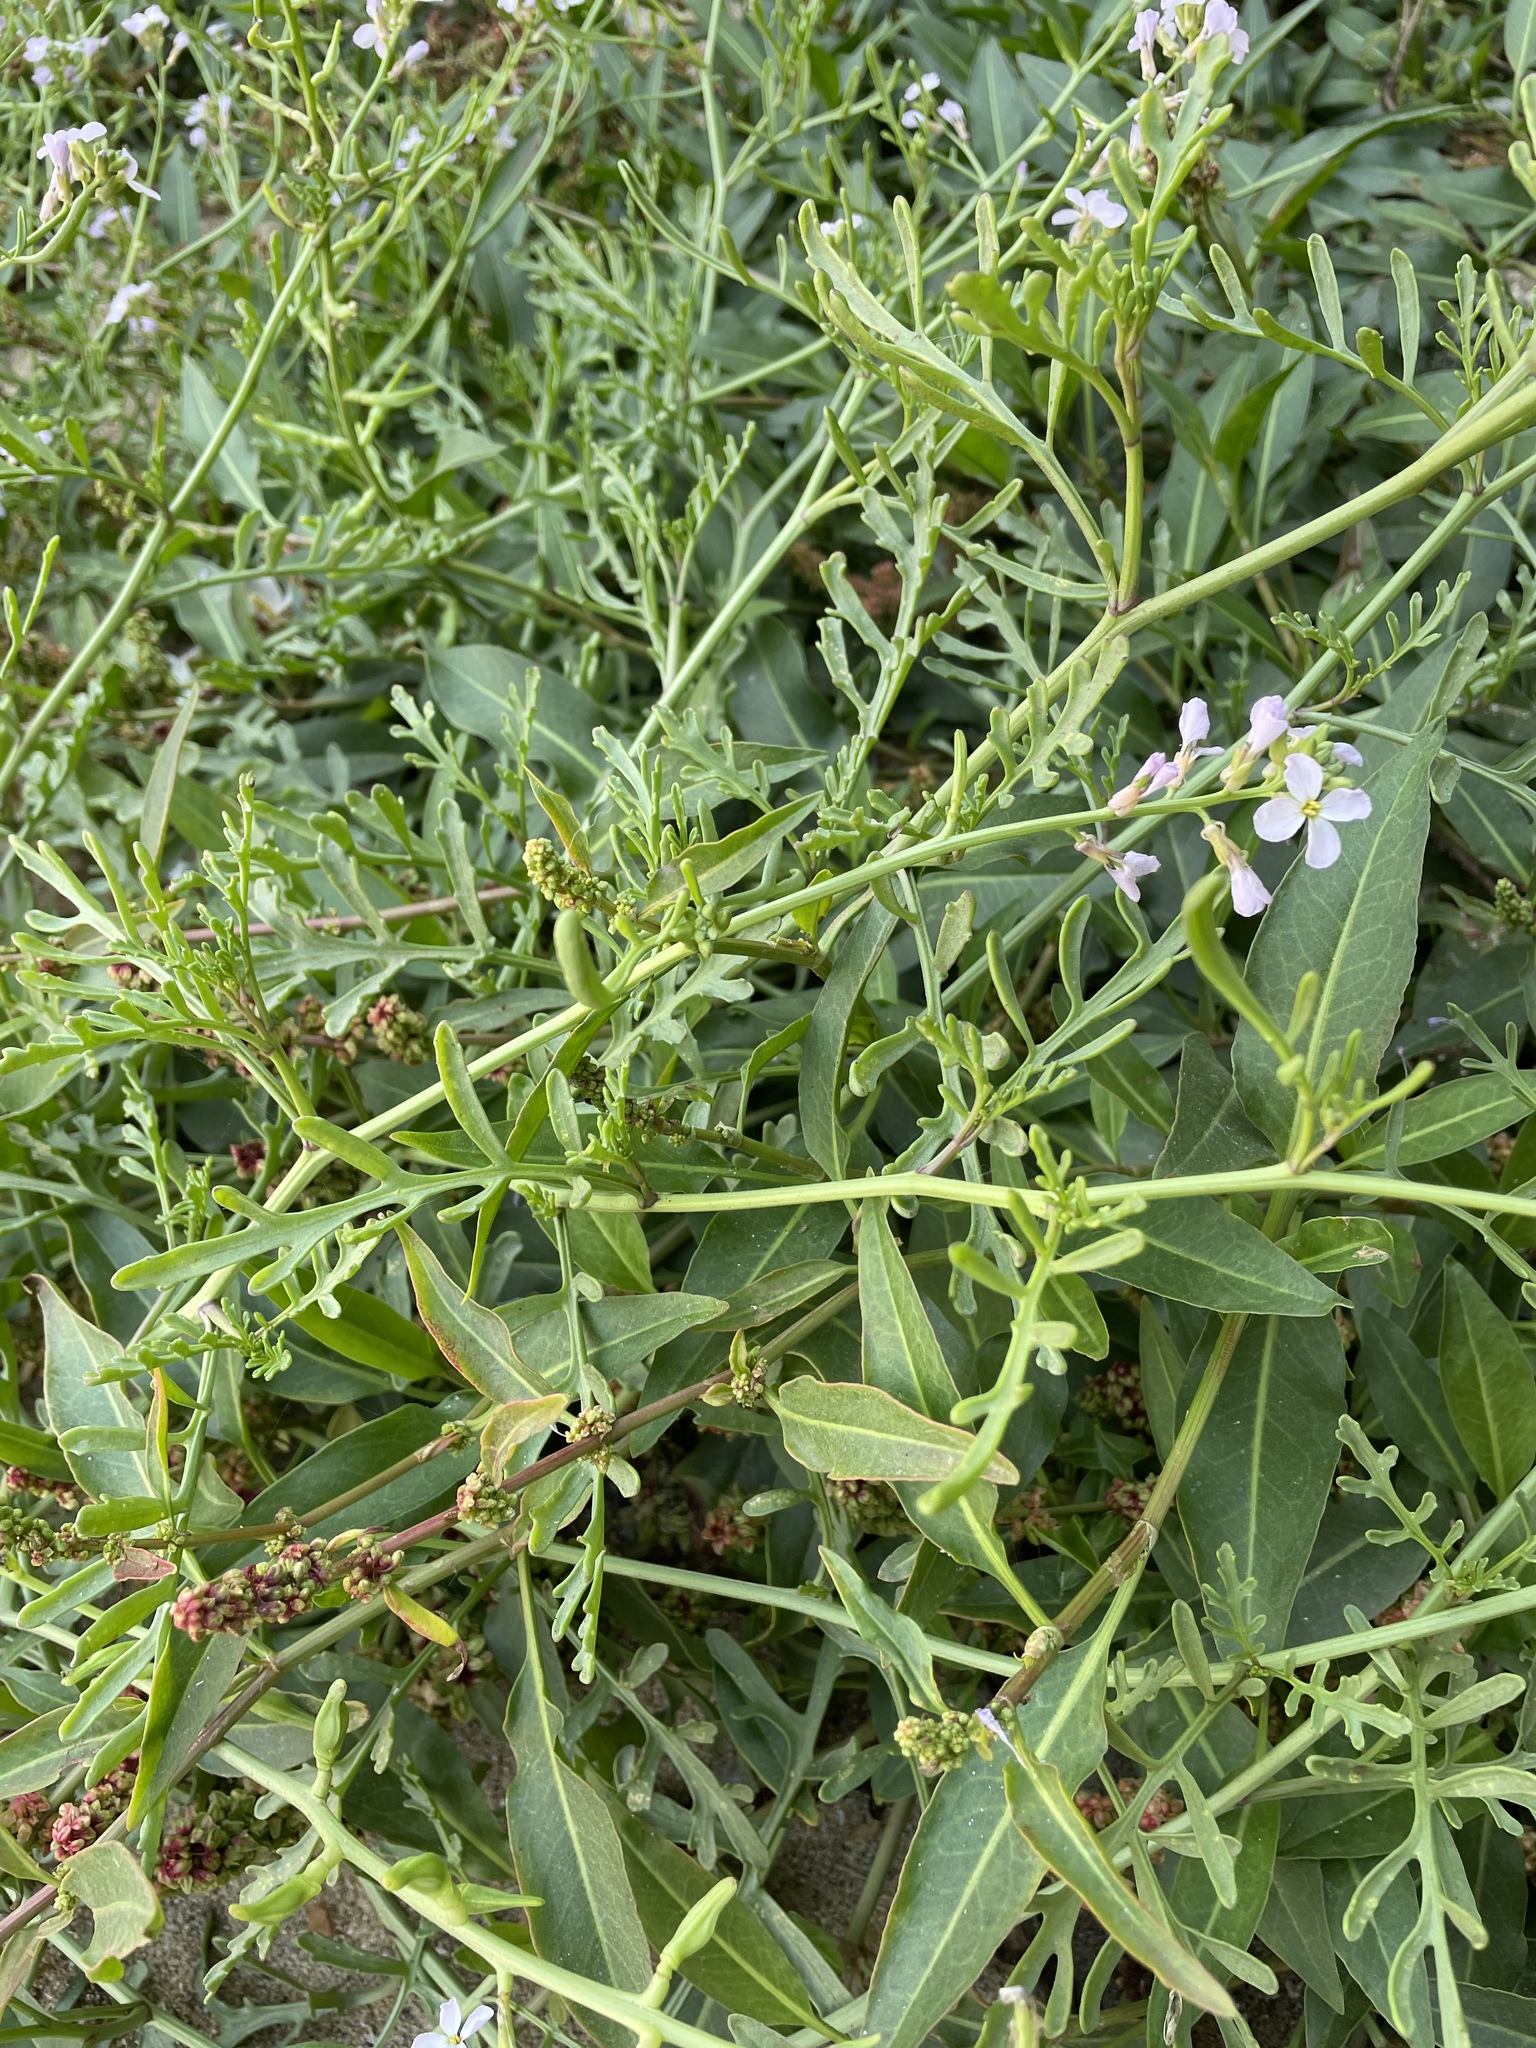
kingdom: Plantae
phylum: Tracheophyta
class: Magnoliopsida
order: Brassicales
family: Brassicaceae
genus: Cakile
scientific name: Cakile maritima
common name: Sea rocket
